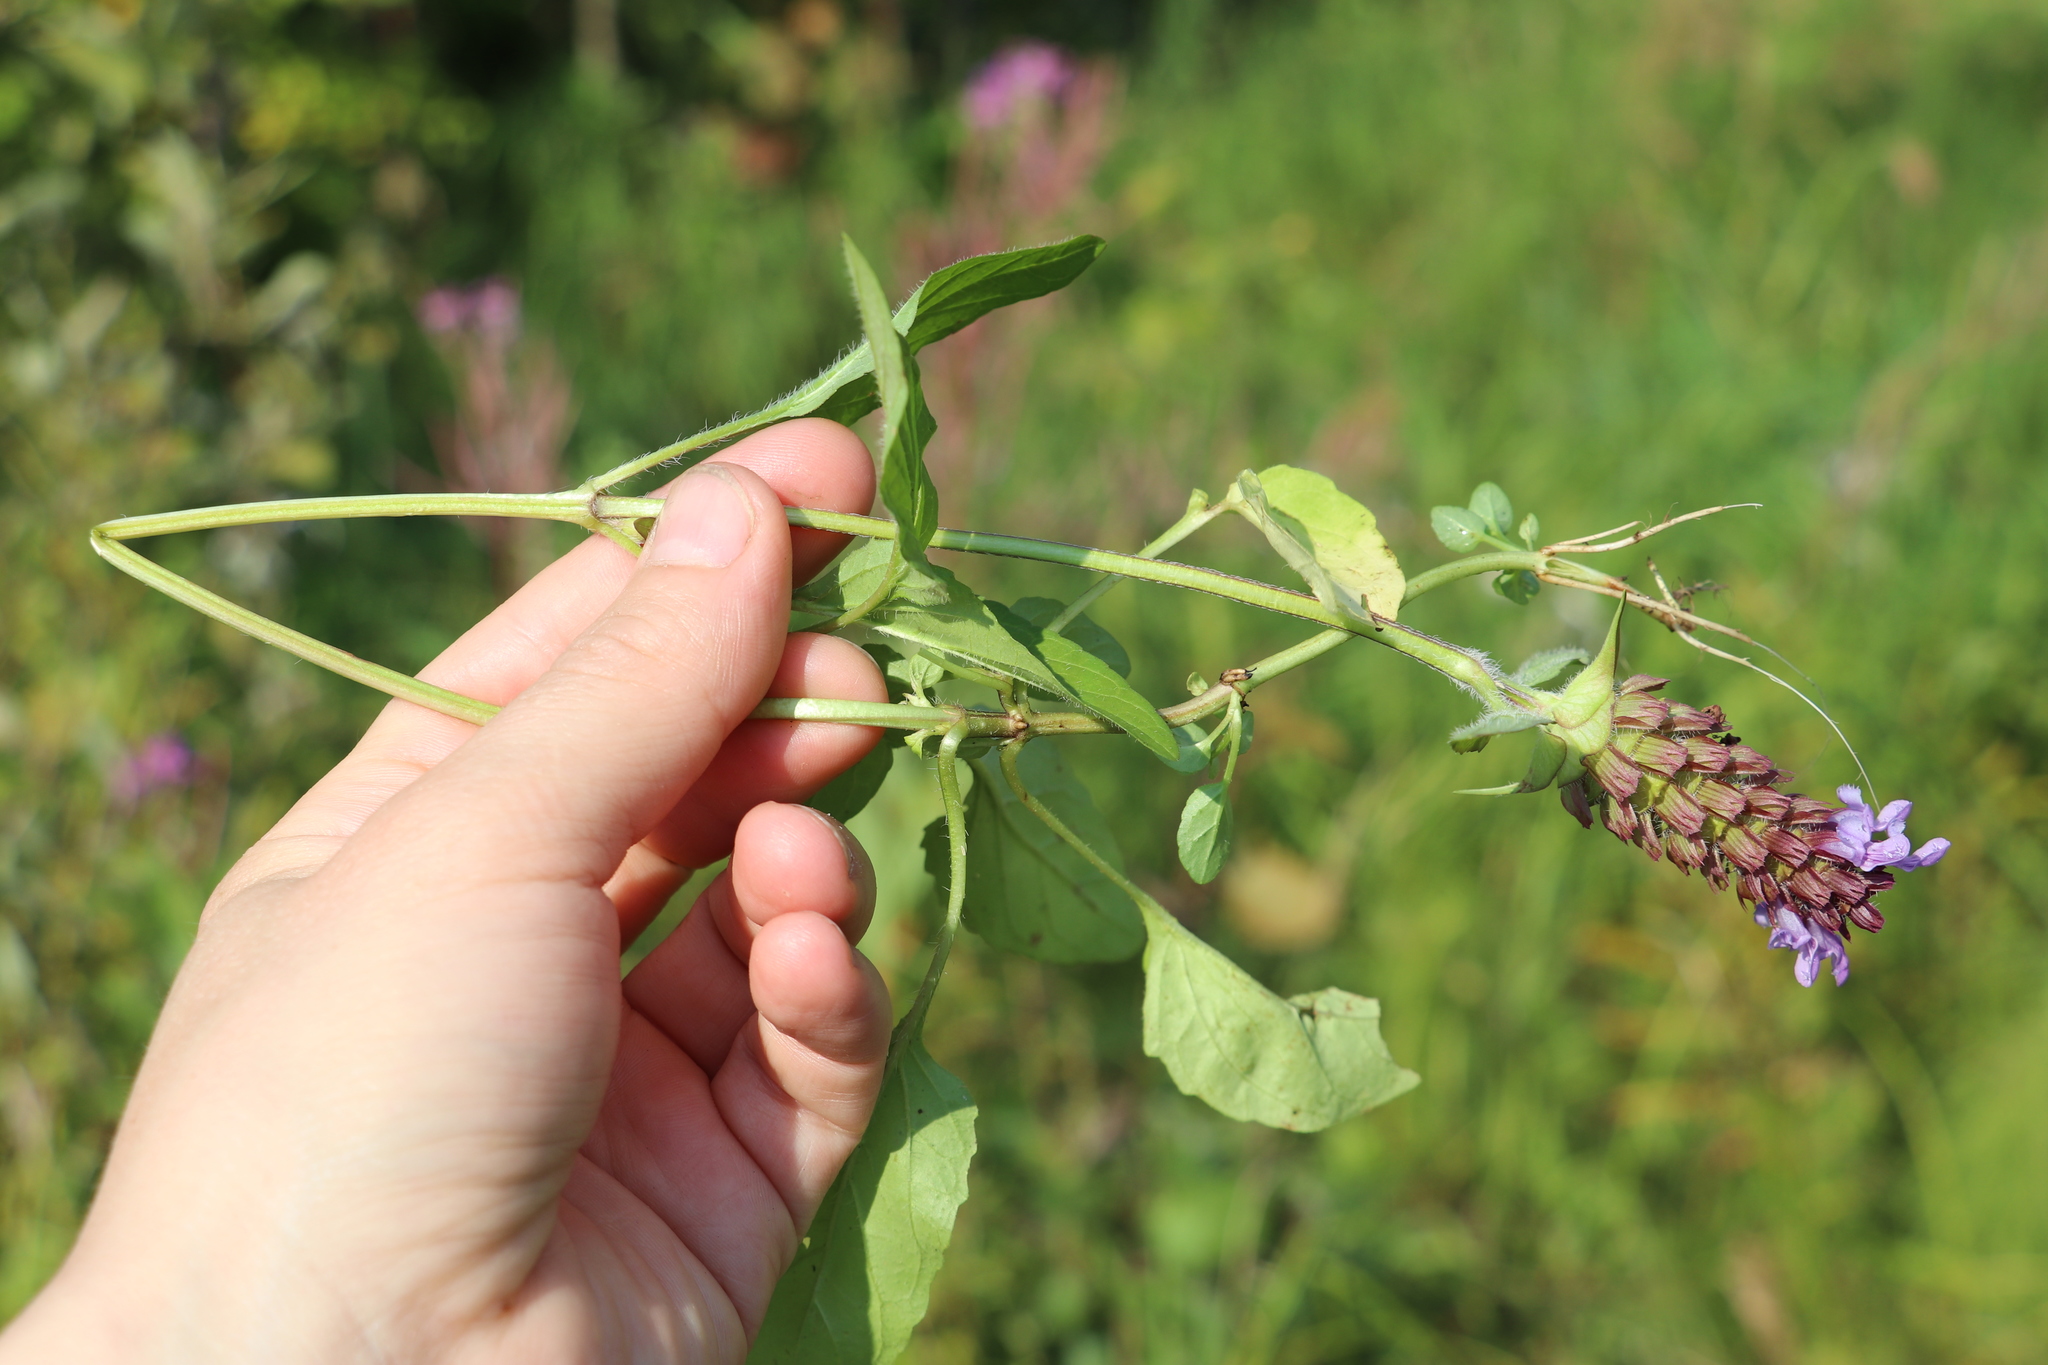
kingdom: Plantae
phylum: Tracheophyta
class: Magnoliopsida
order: Lamiales
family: Lamiaceae
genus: Prunella
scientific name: Prunella vulgaris
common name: Heal-all
